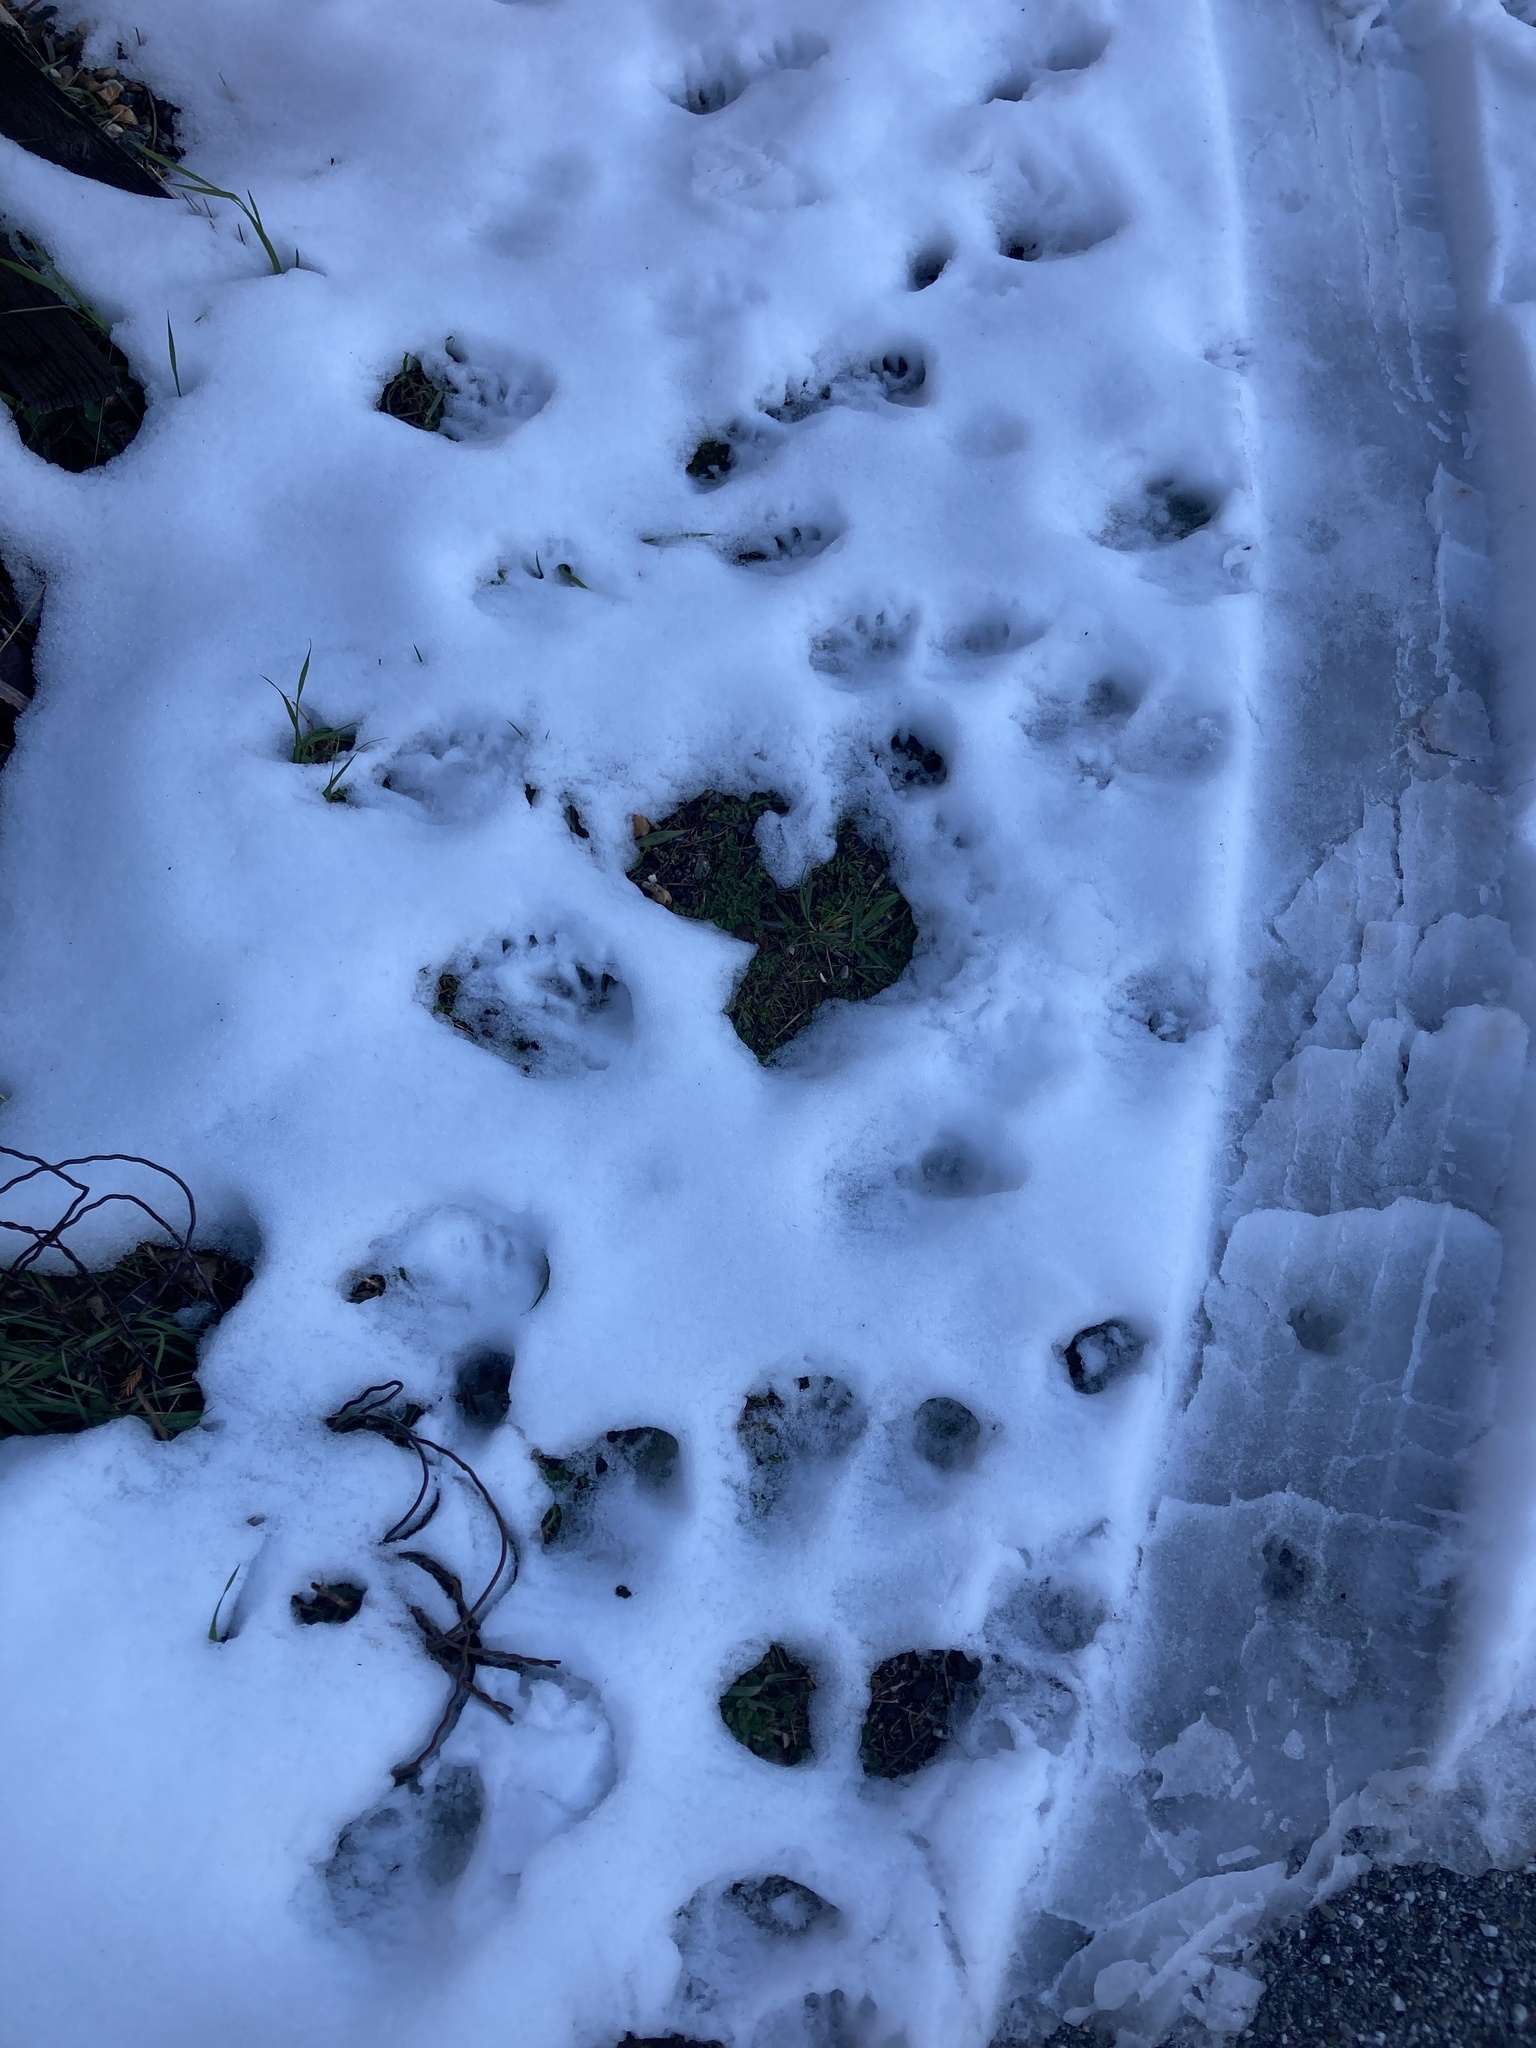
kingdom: Animalia
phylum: Chordata
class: Mammalia
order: Carnivora
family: Procyonidae
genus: Procyon
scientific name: Procyon lotor
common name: Raccoon
